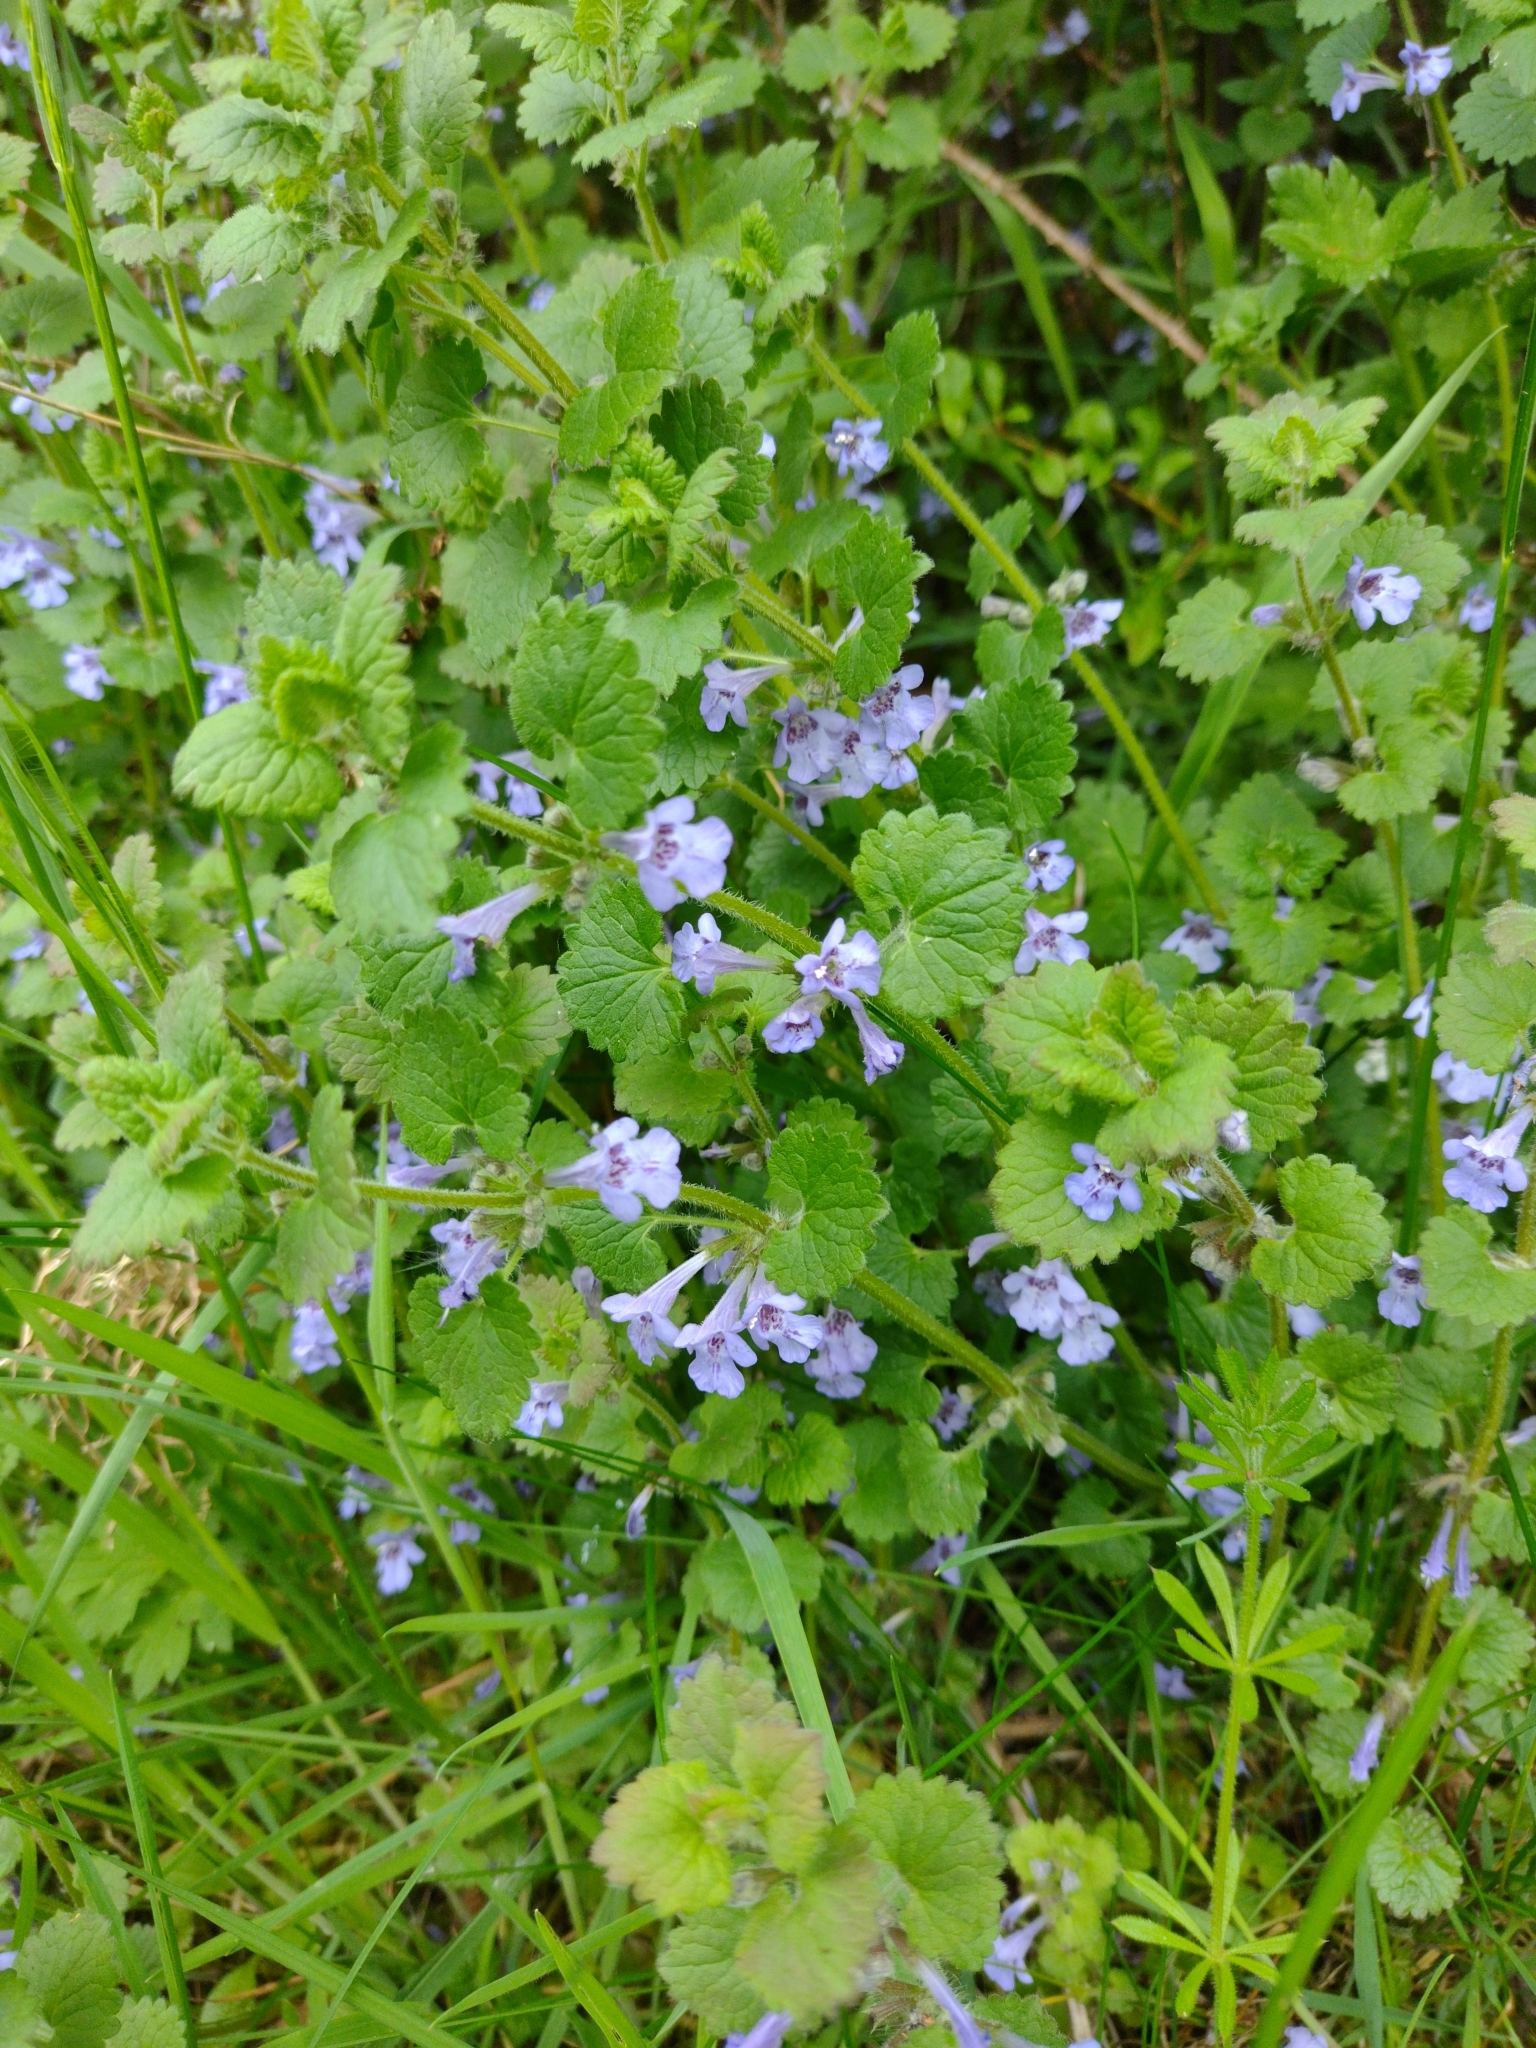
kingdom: Plantae
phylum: Tracheophyta
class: Magnoliopsida
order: Lamiales
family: Lamiaceae
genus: Glechoma
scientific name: Glechoma hederacea
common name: Ground ivy
